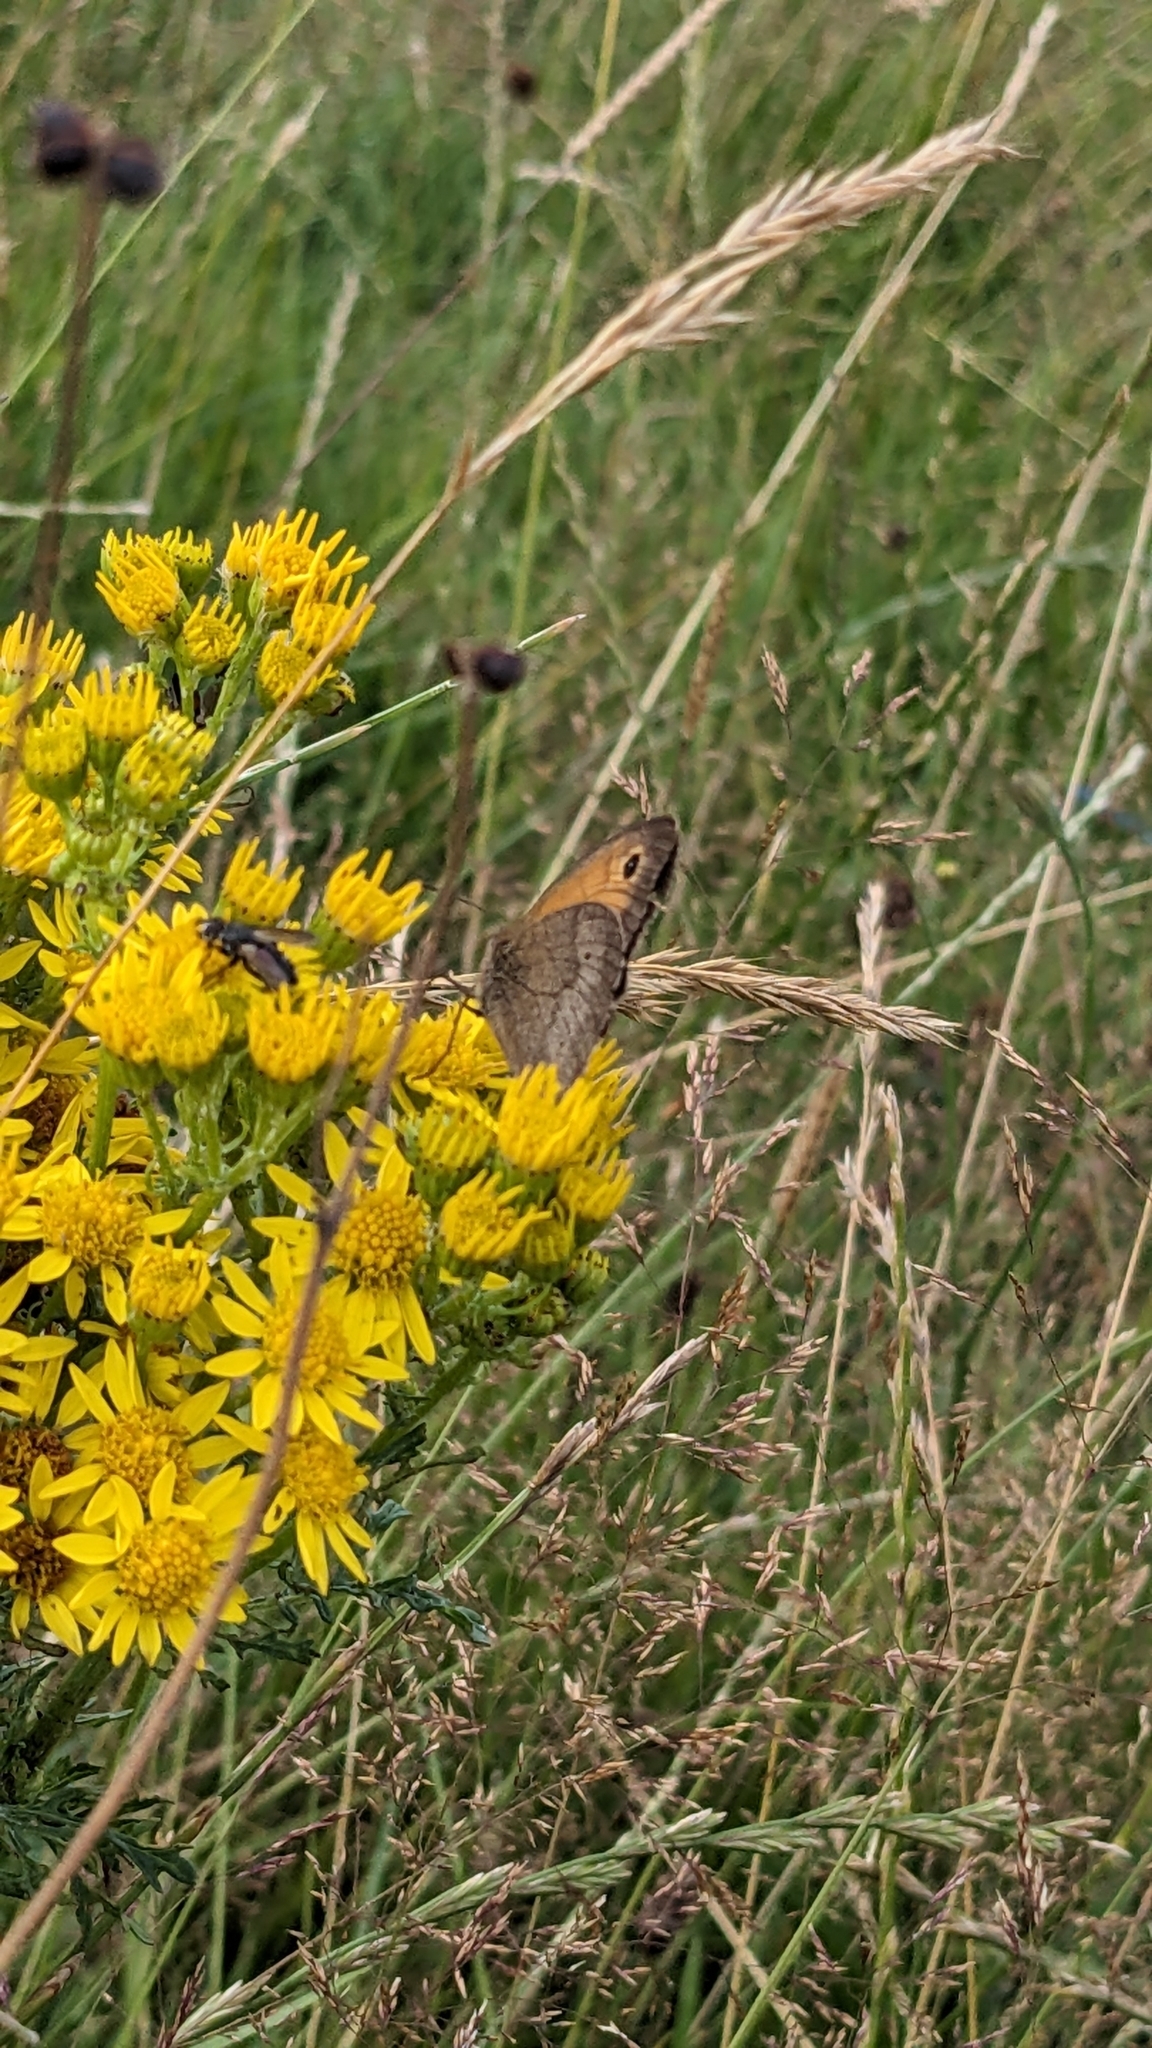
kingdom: Animalia
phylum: Arthropoda
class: Insecta
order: Lepidoptera
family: Nymphalidae
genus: Maniola
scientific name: Maniola jurtina
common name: Meadow brown
